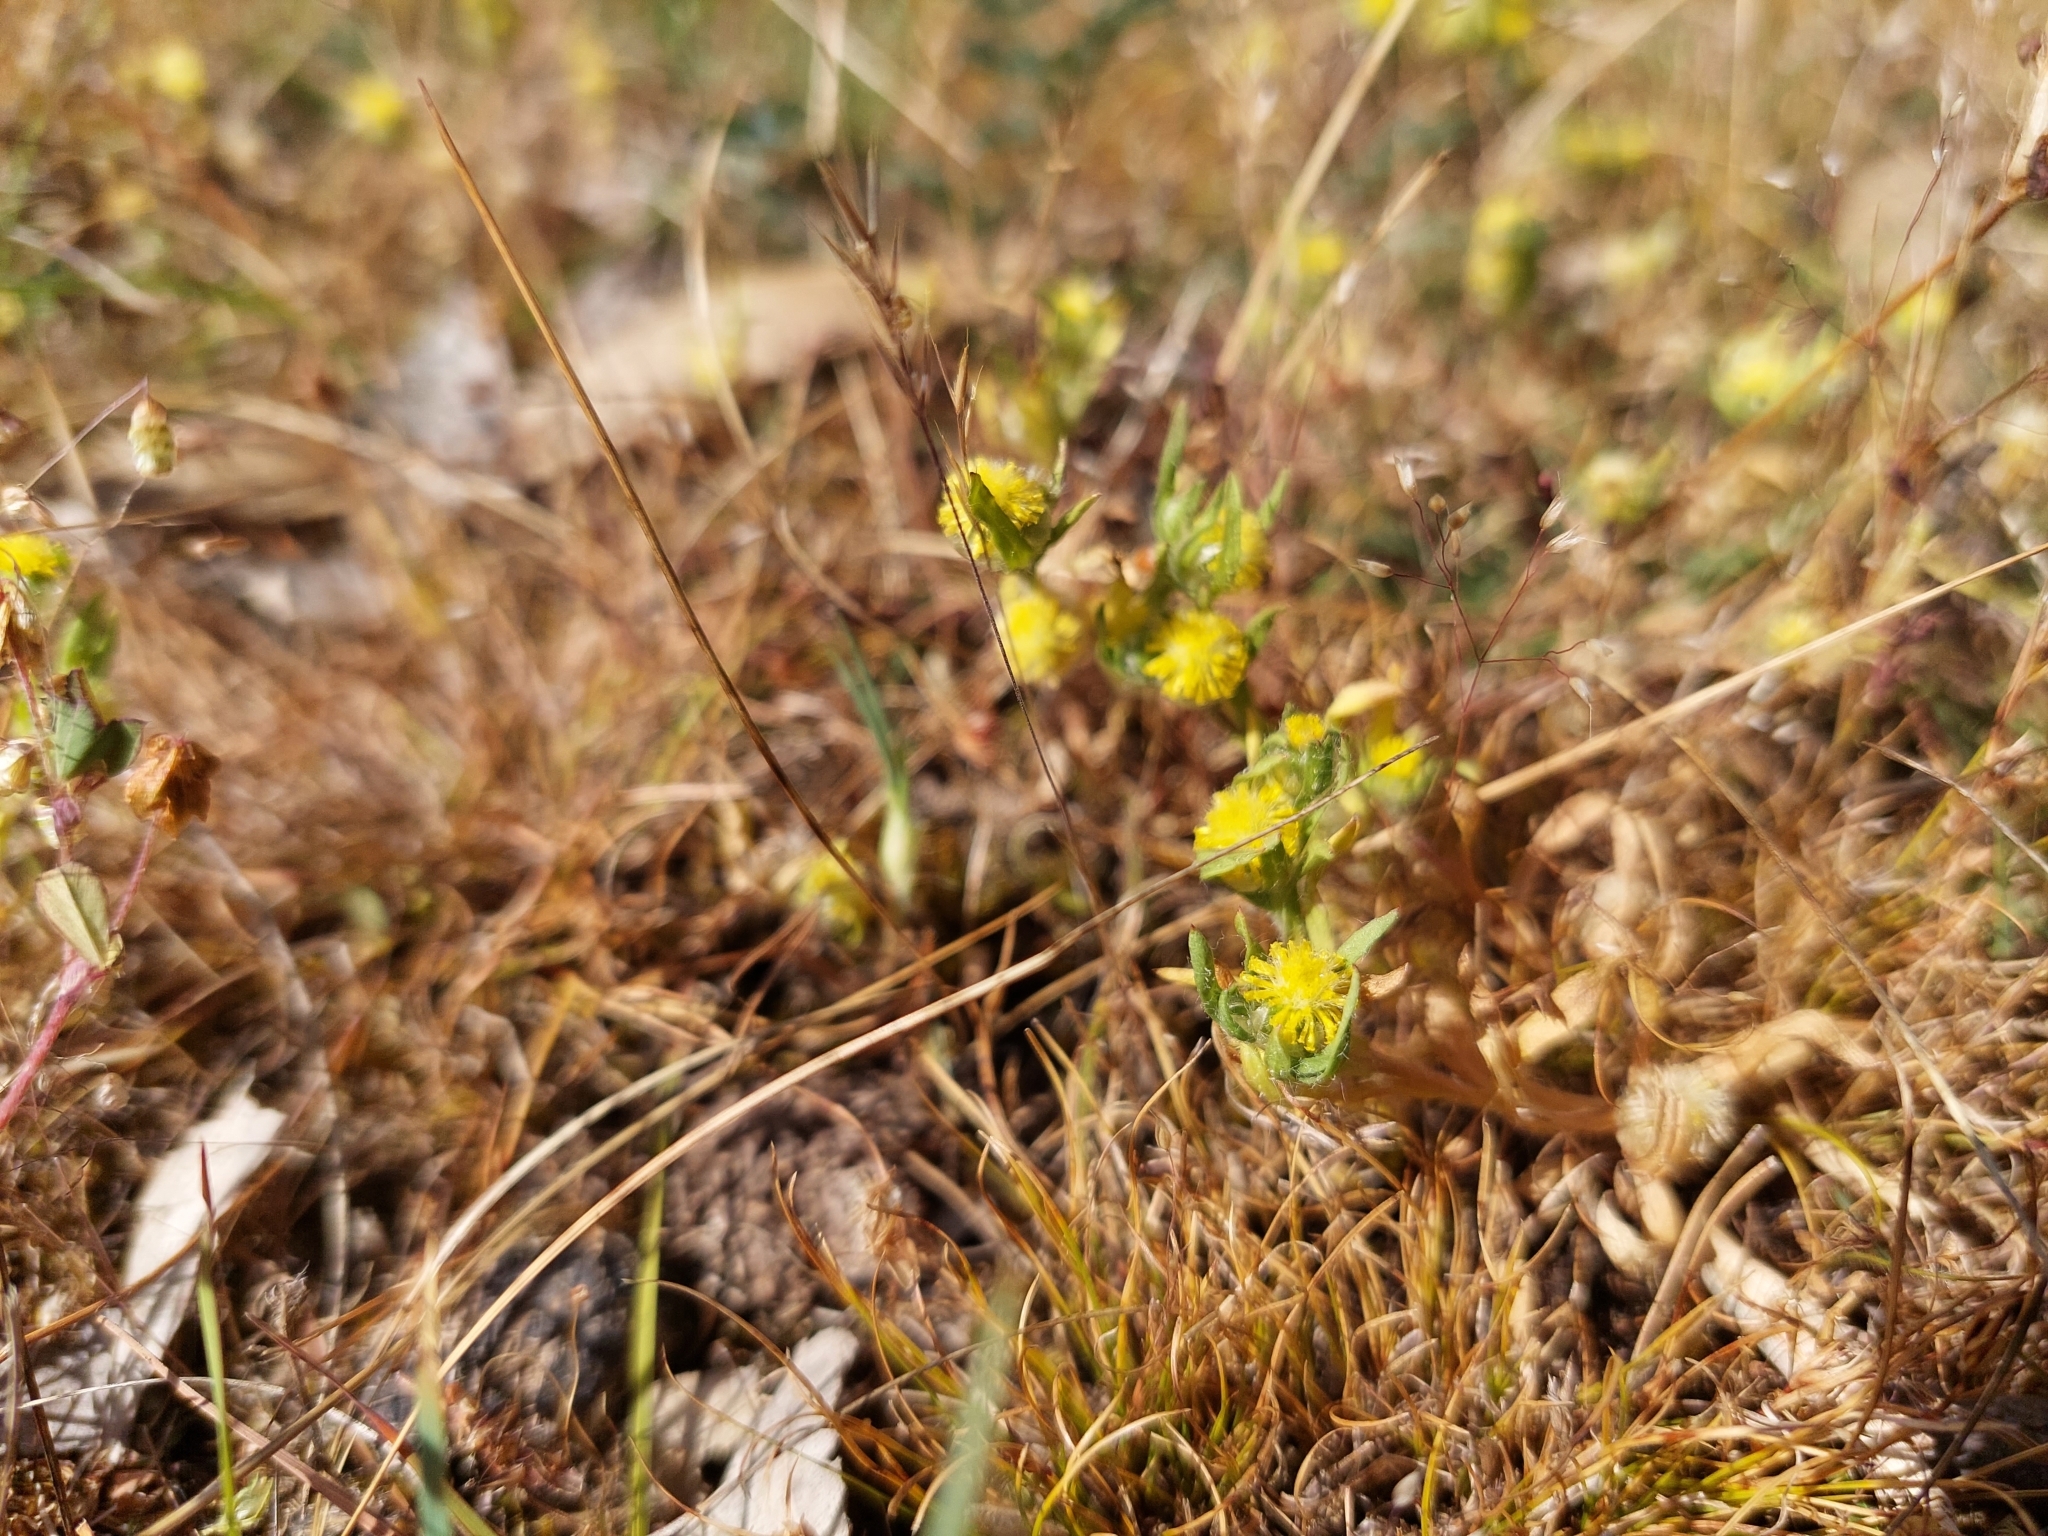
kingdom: Plantae
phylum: Tracheophyta
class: Magnoliopsida
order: Asterales
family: Asteraceae
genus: Triptilodiscus
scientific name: Triptilodiscus pygmaeus
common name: Common sunray
